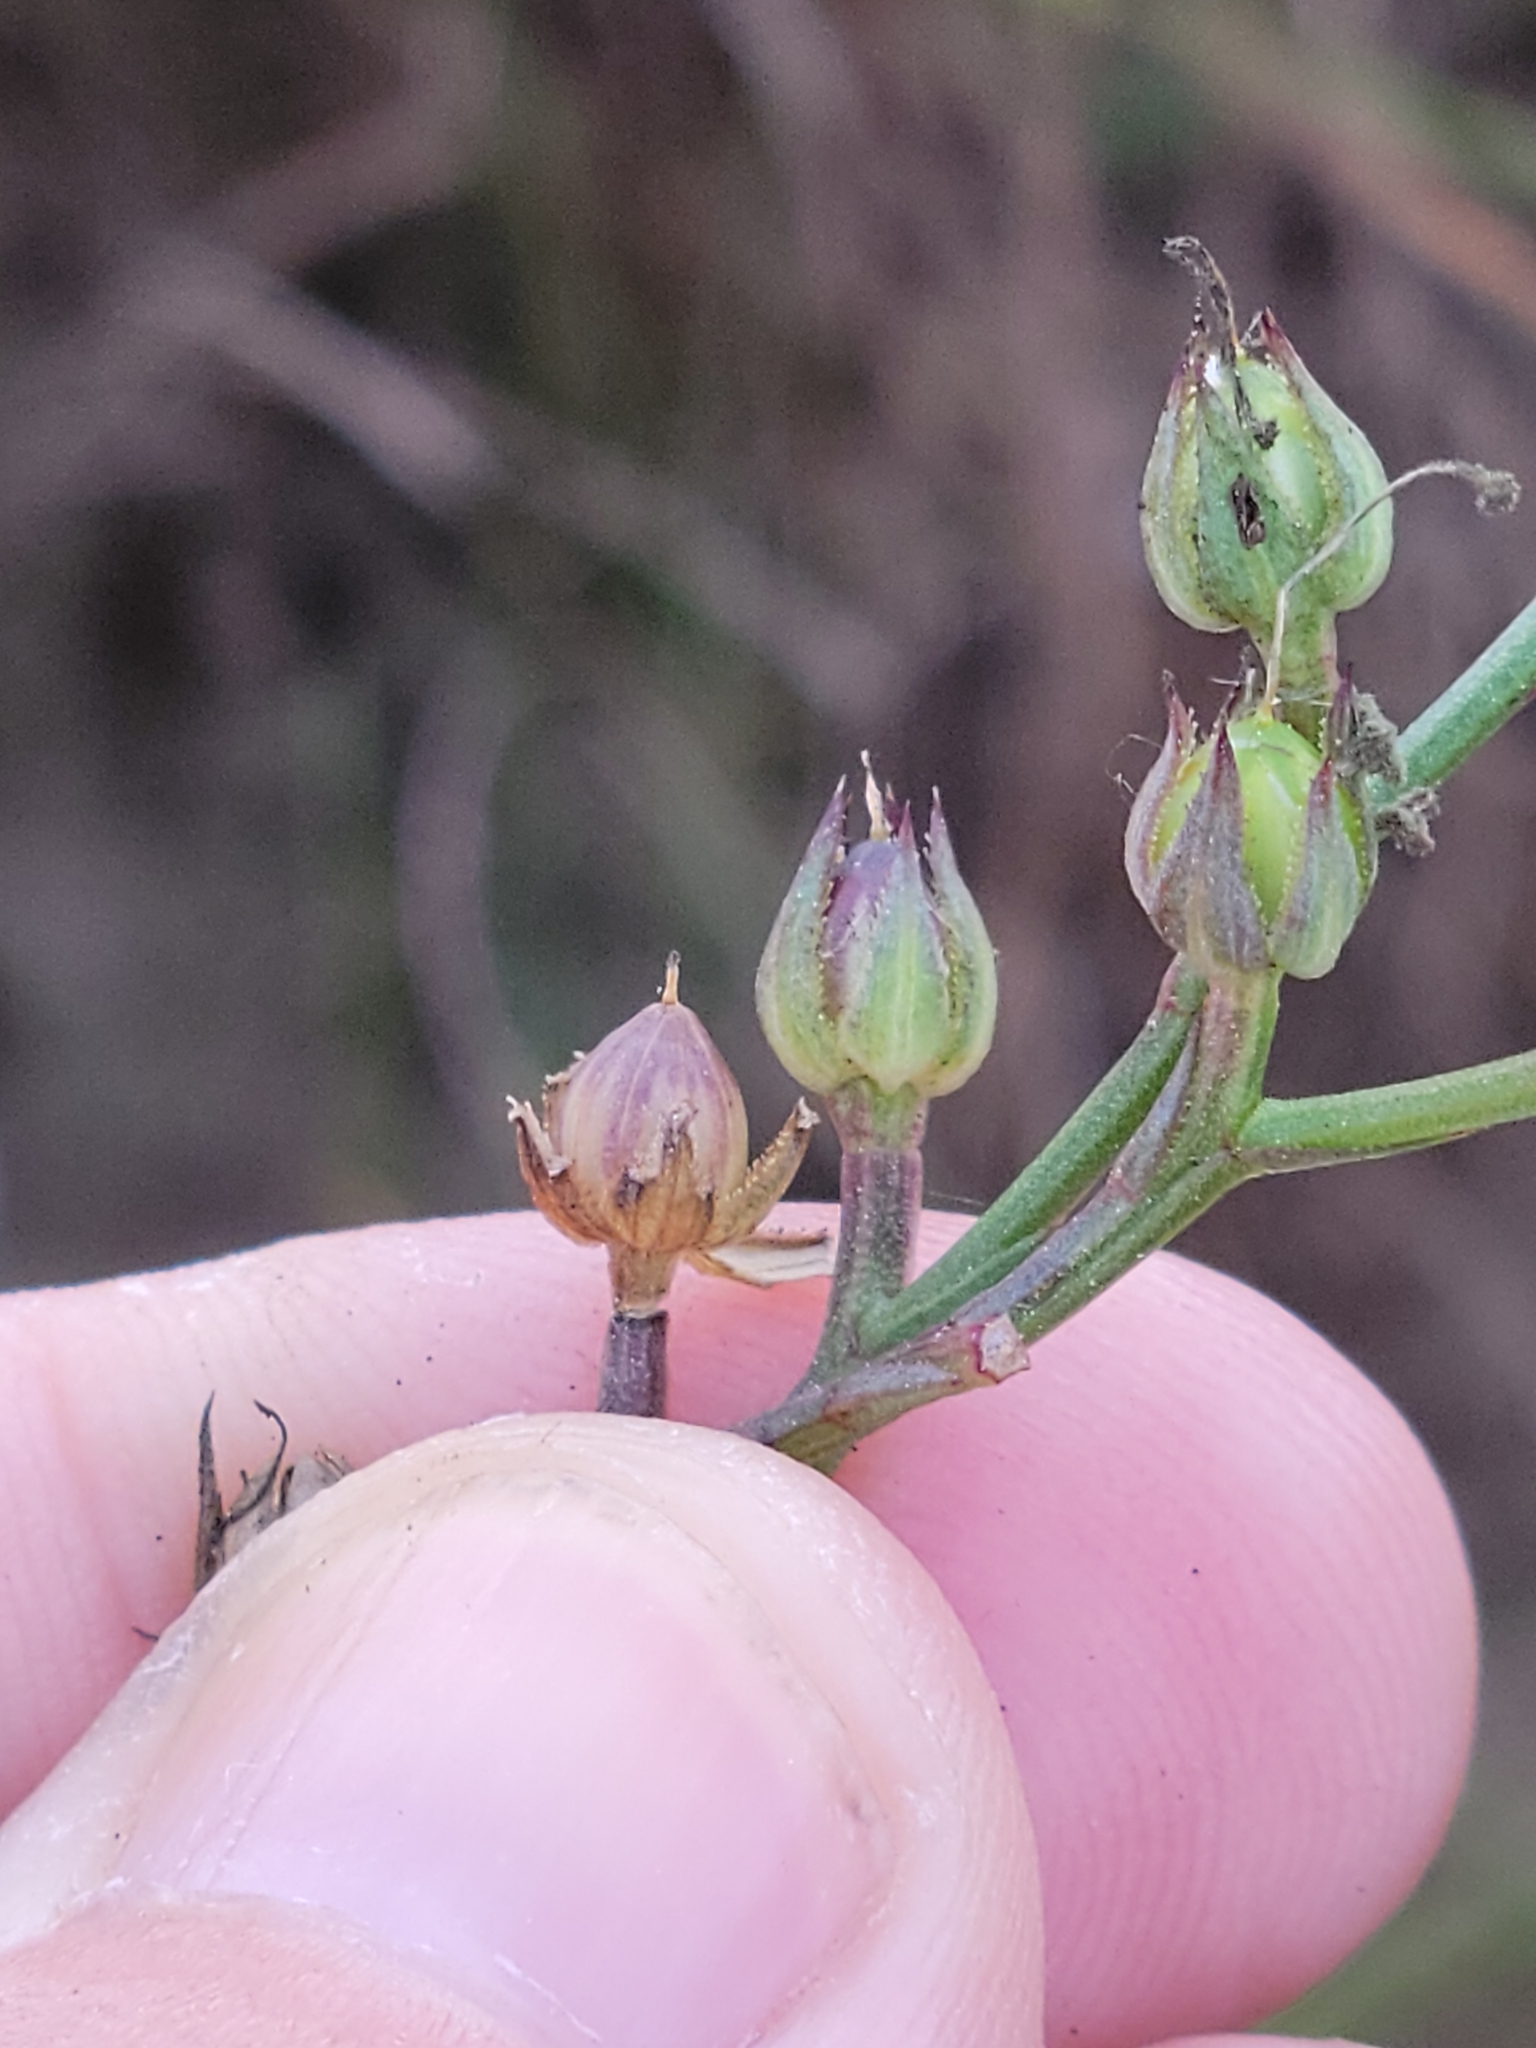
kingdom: Plantae
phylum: Tracheophyta
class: Magnoliopsida
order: Malpighiales
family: Linaceae
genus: Linum
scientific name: Linum smallii
